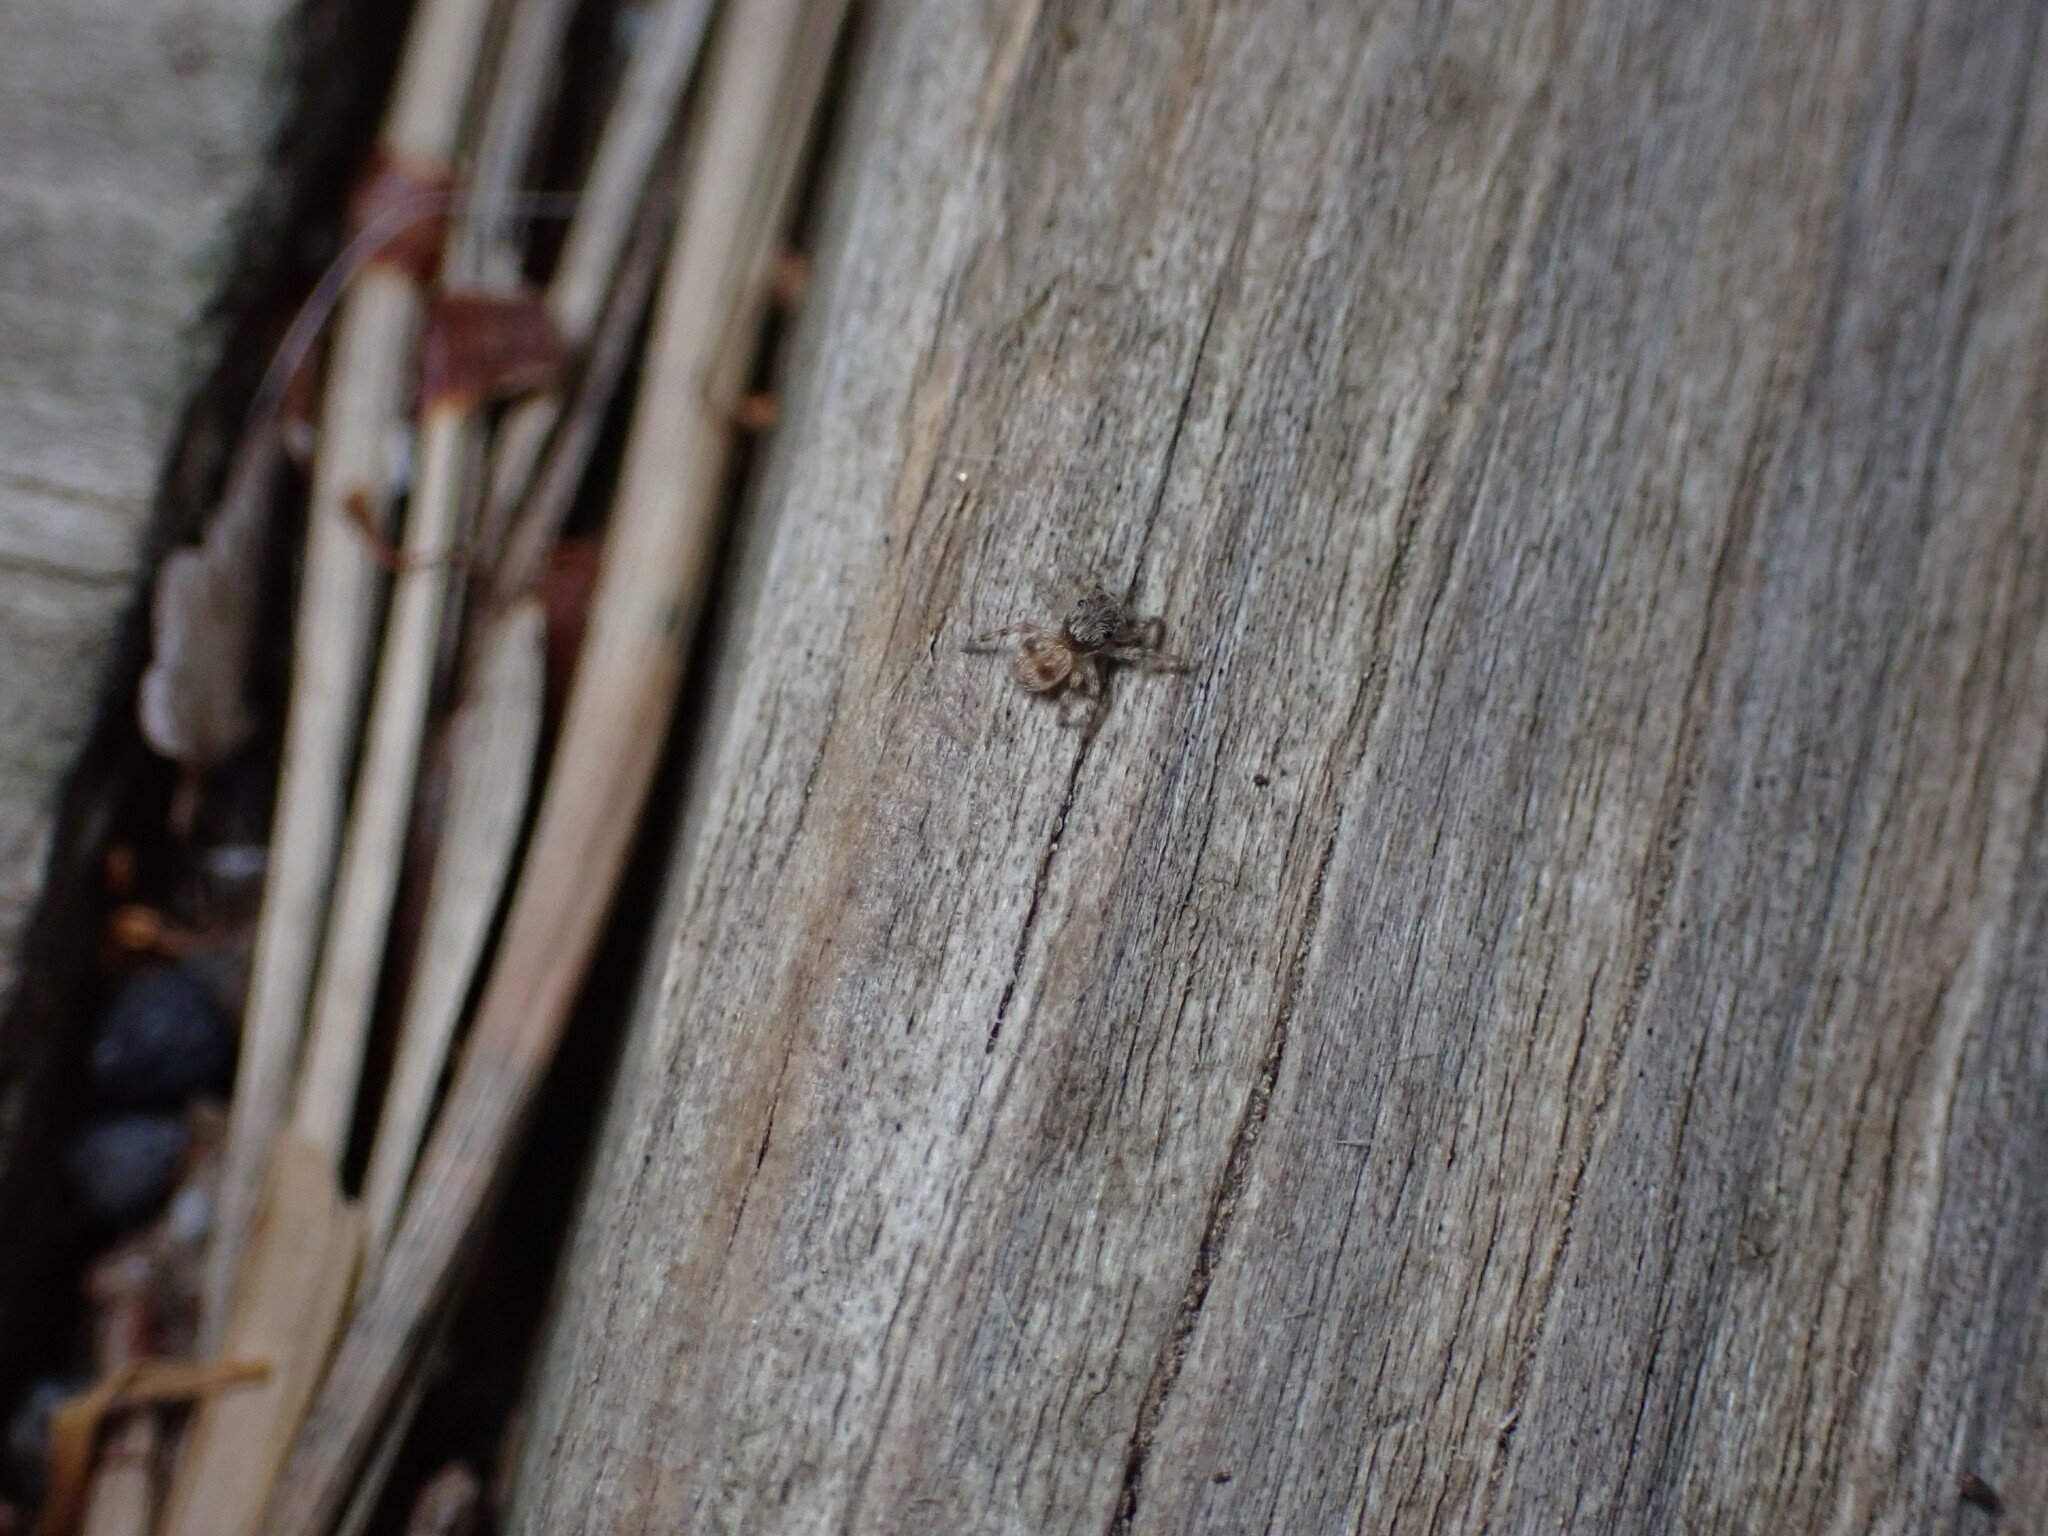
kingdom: Animalia
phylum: Arthropoda
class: Arachnida
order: Araneae
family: Salticidae
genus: Attulus
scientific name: Attulus fasciger
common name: Asiatic wall jumping spider
